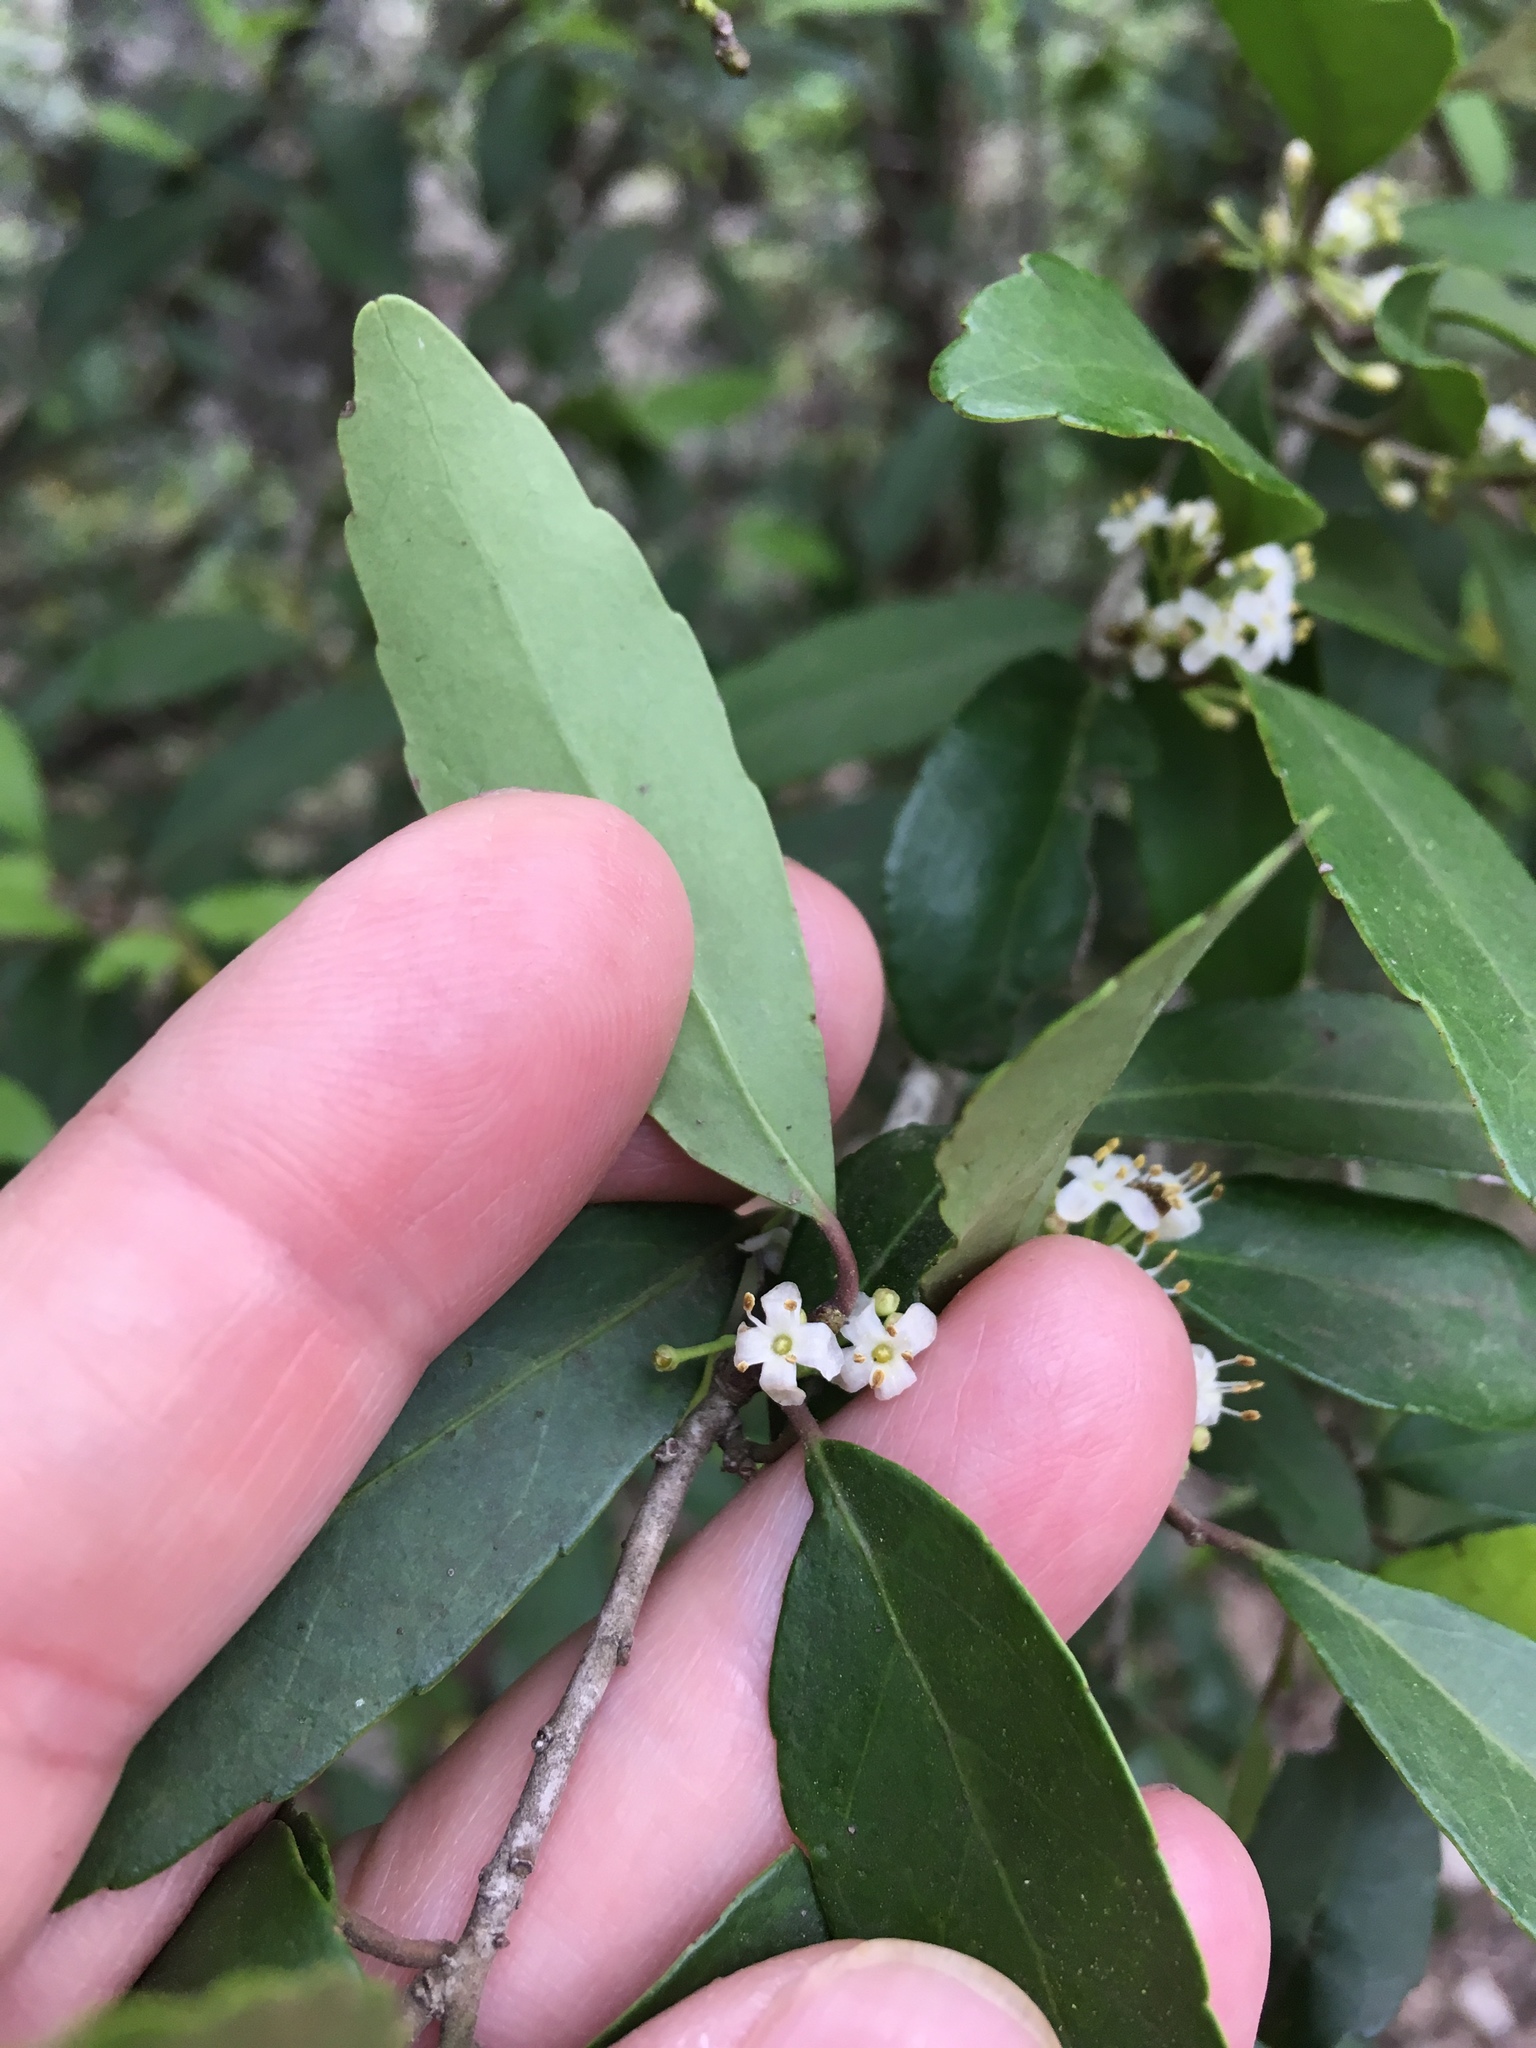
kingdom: Plantae
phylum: Tracheophyta
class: Magnoliopsida
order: Aquifoliales
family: Aquifoliaceae
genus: Ilex
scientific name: Ilex vomitoria
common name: Yaupon holly
